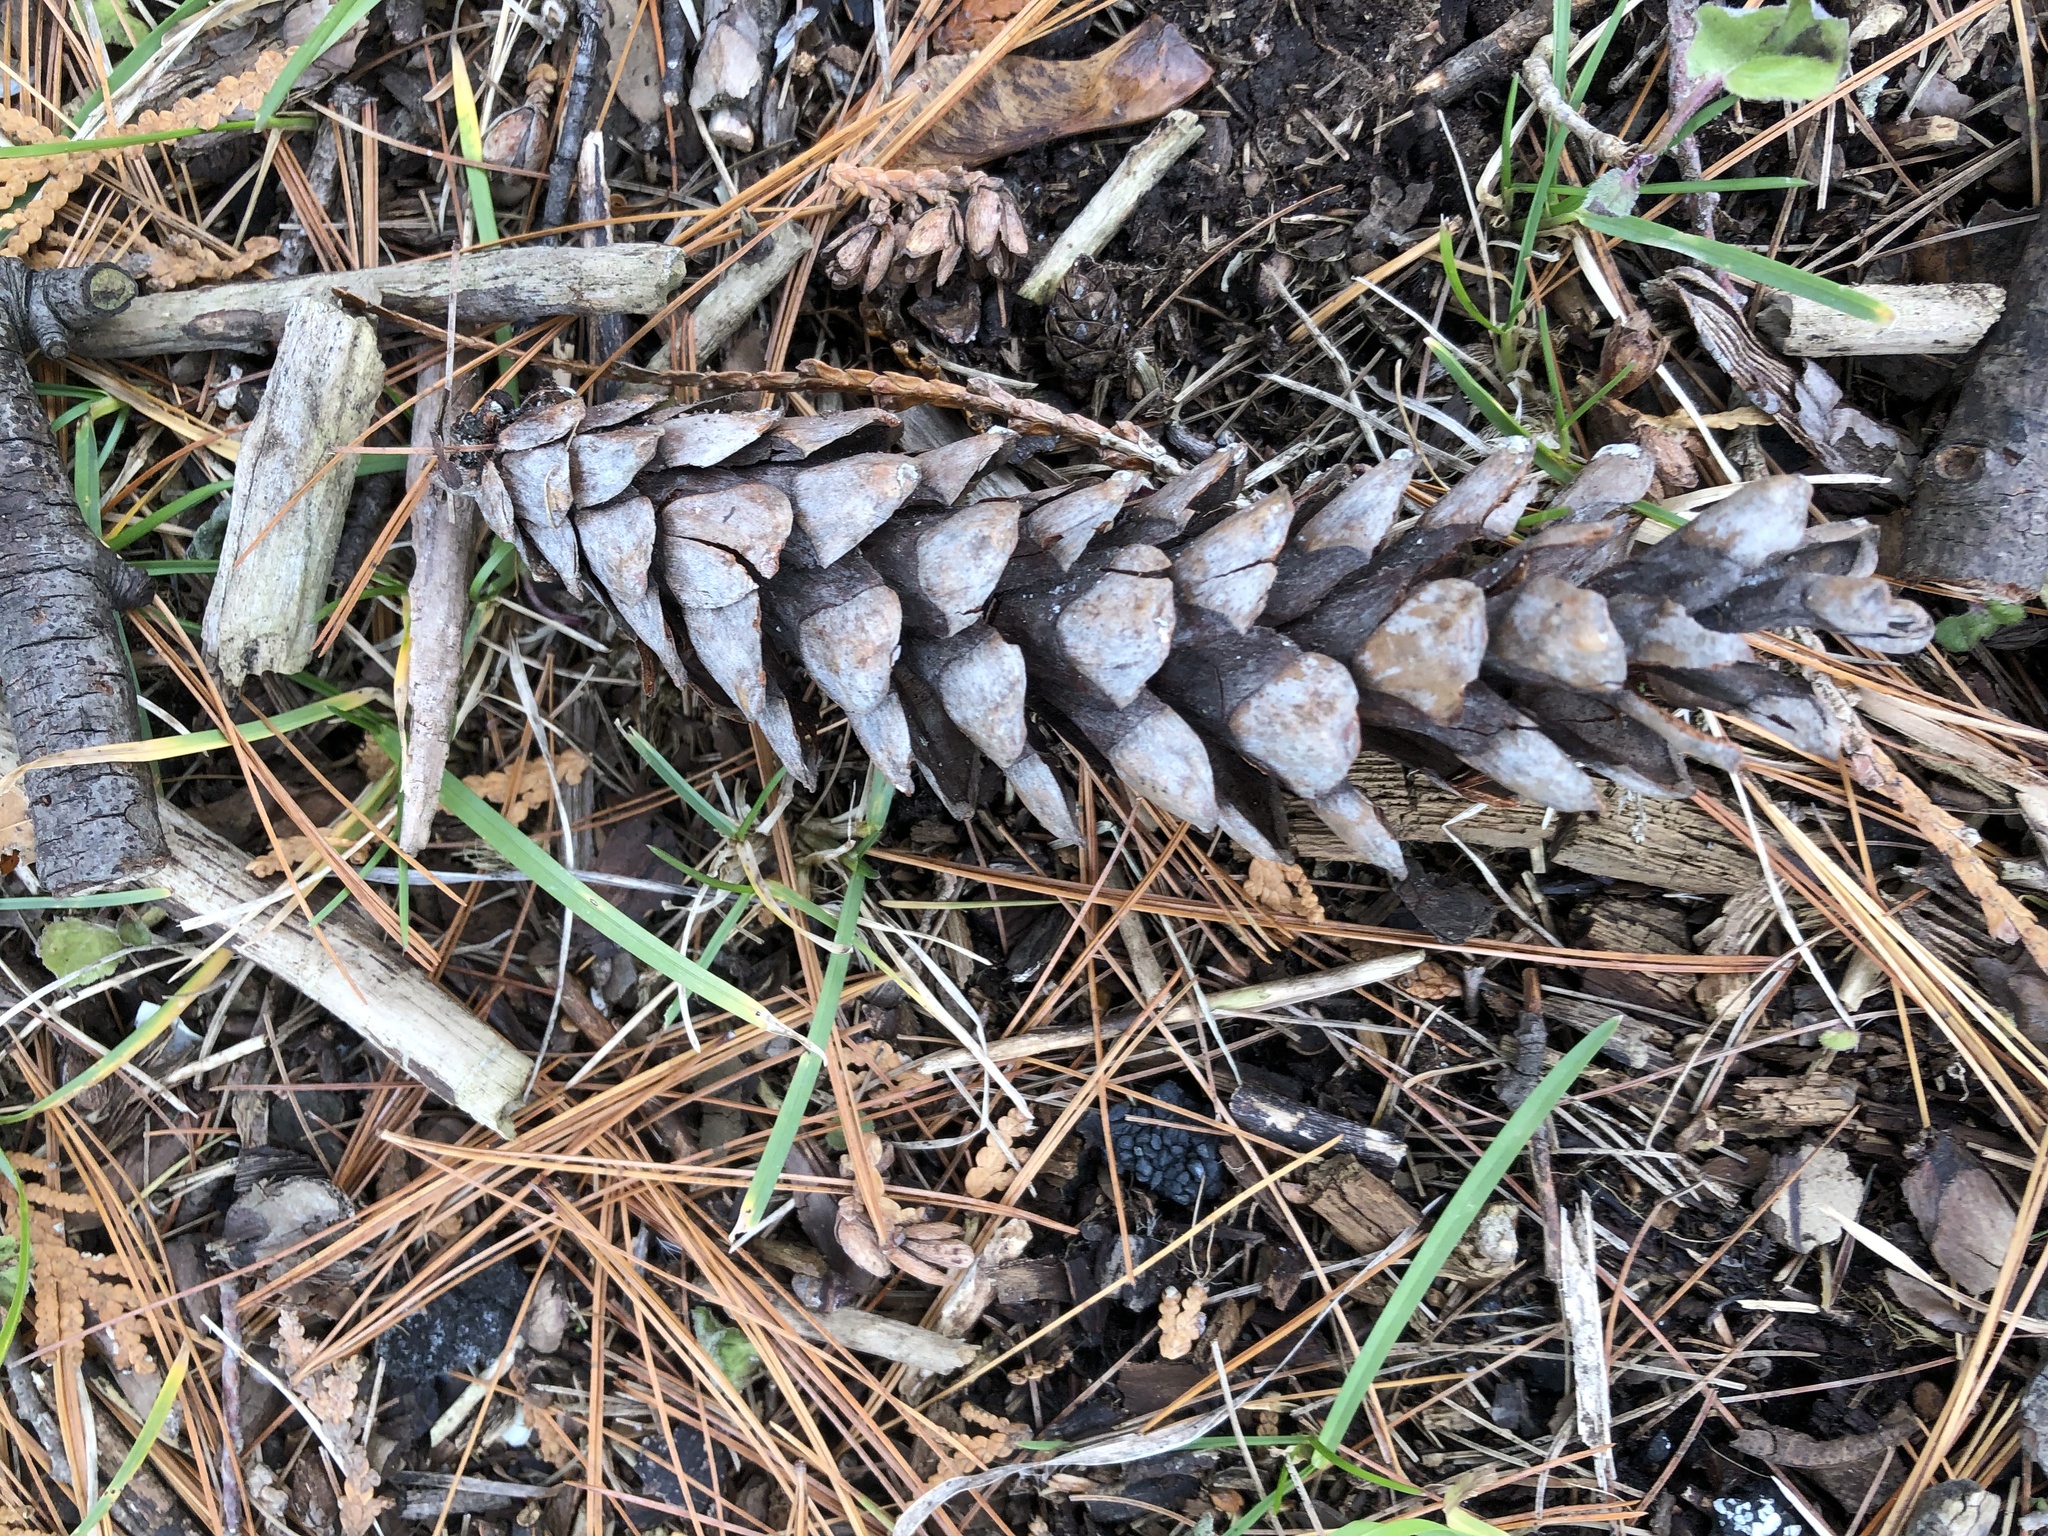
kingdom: Plantae
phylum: Tracheophyta
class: Pinopsida
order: Pinales
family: Pinaceae
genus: Pinus
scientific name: Pinus strobus
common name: Weymouth pine
